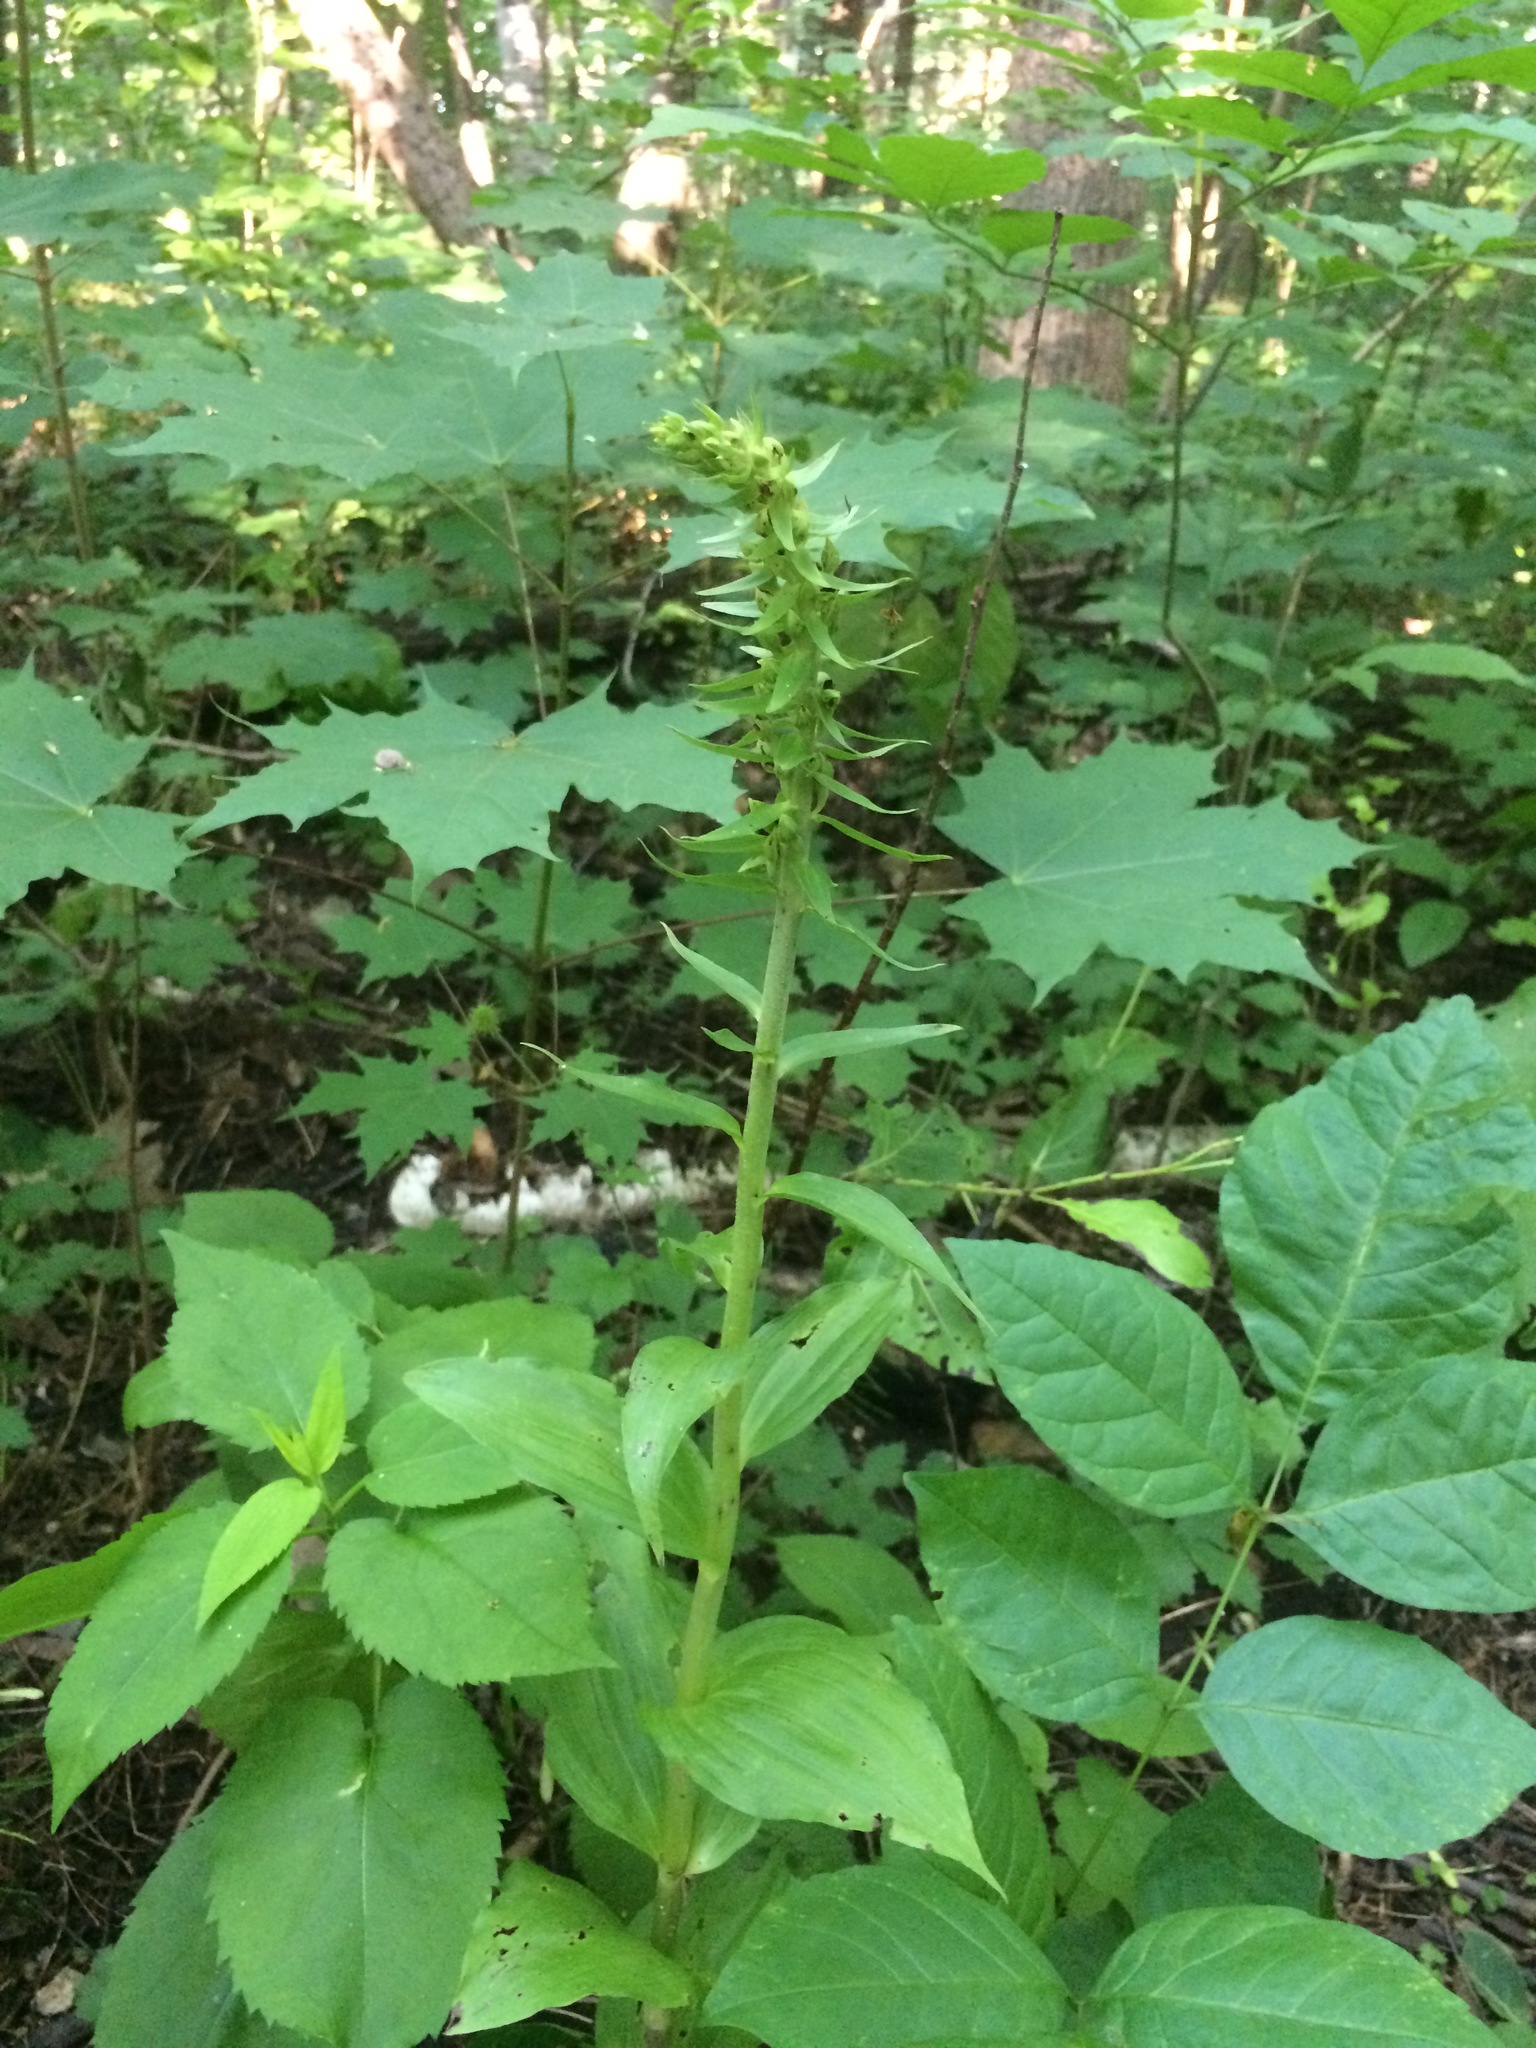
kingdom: Plantae
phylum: Tracheophyta
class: Liliopsida
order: Asparagales
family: Orchidaceae
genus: Epipactis
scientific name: Epipactis helleborine
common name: Broad-leaved helleborine
